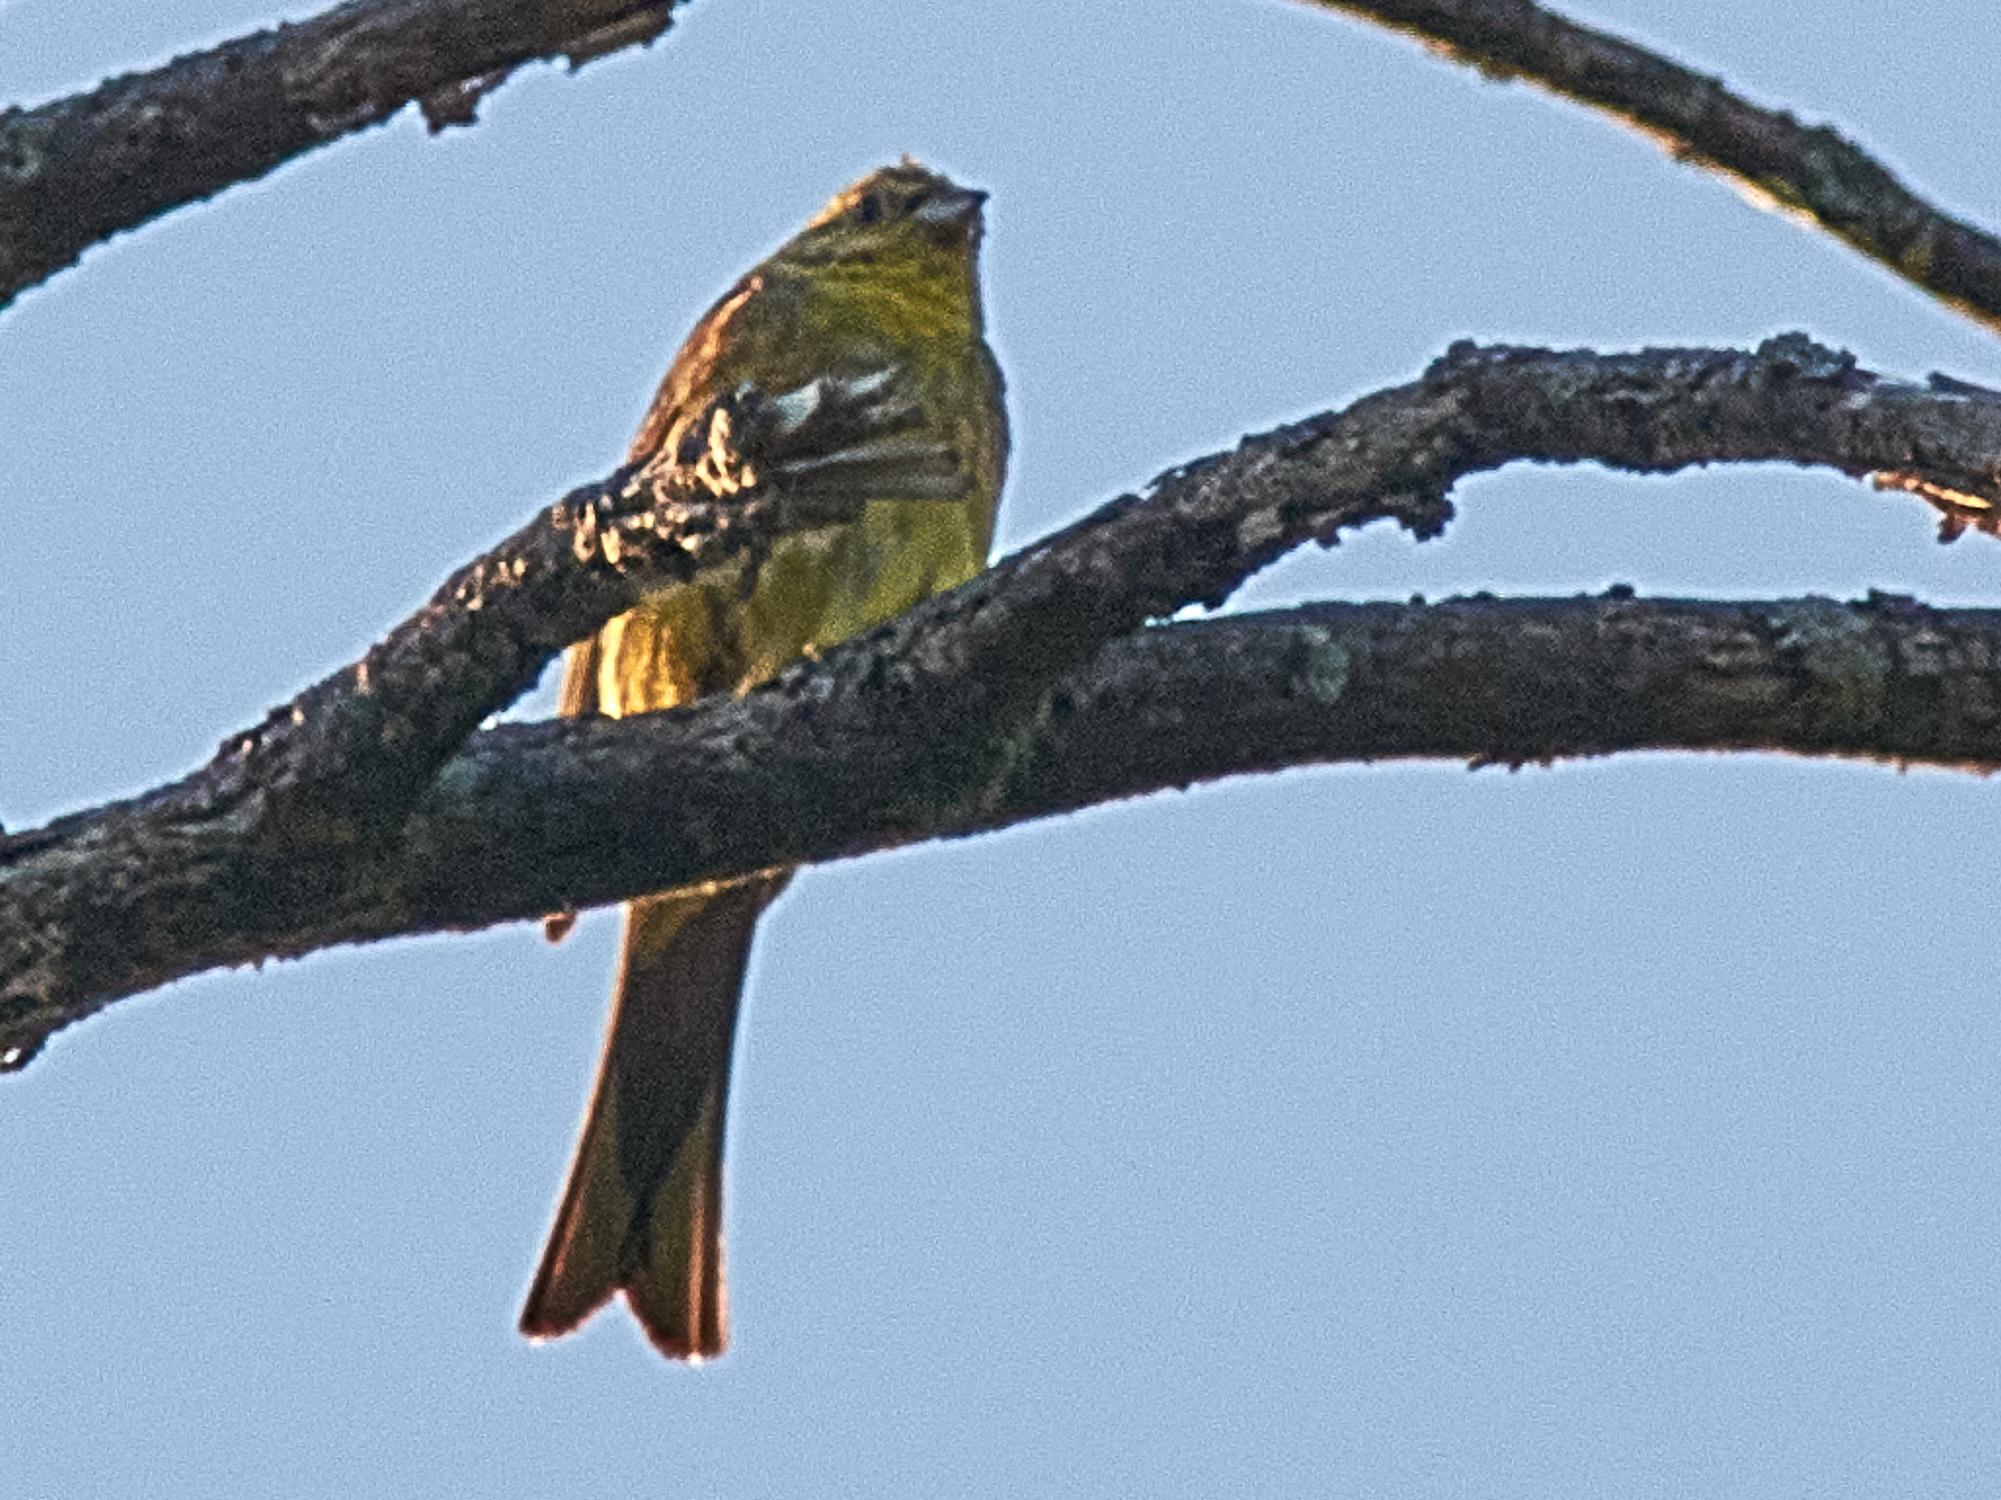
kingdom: Animalia
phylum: Chordata
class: Aves
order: Passeriformes
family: Emberizidae
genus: Emberiza
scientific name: Emberiza citrinella
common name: Yellowhammer
